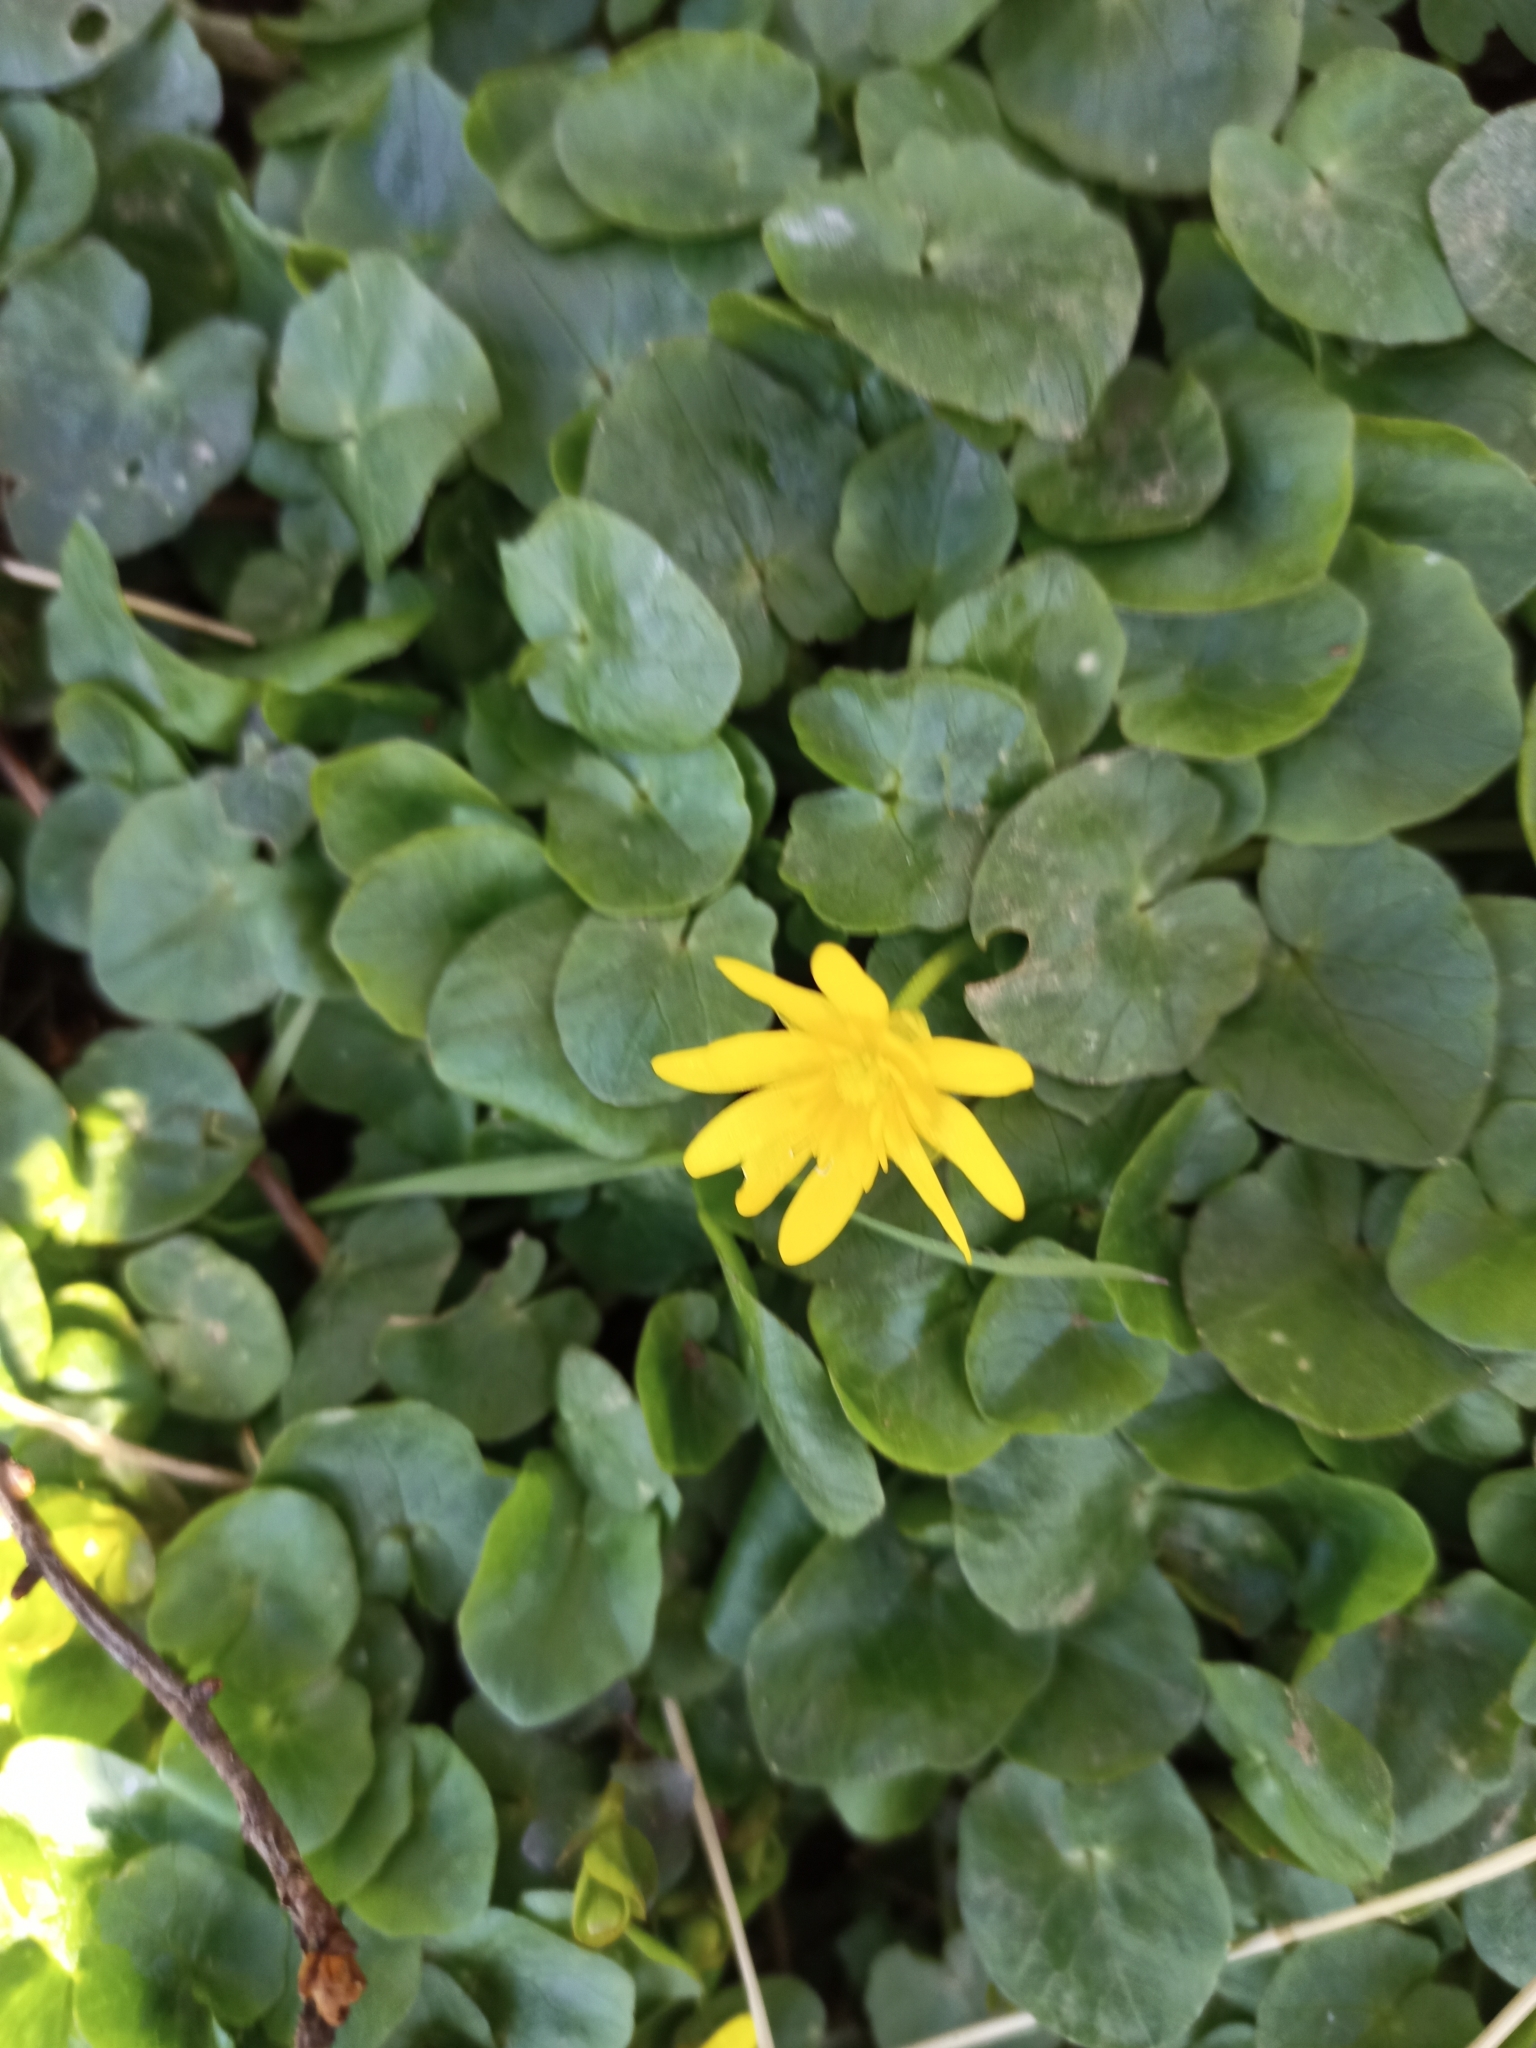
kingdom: Plantae
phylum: Tracheophyta
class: Magnoliopsida
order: Ranunculales
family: Ranunculaceae
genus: Ficaria
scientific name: Ficaria verna
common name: Lesser celandine
